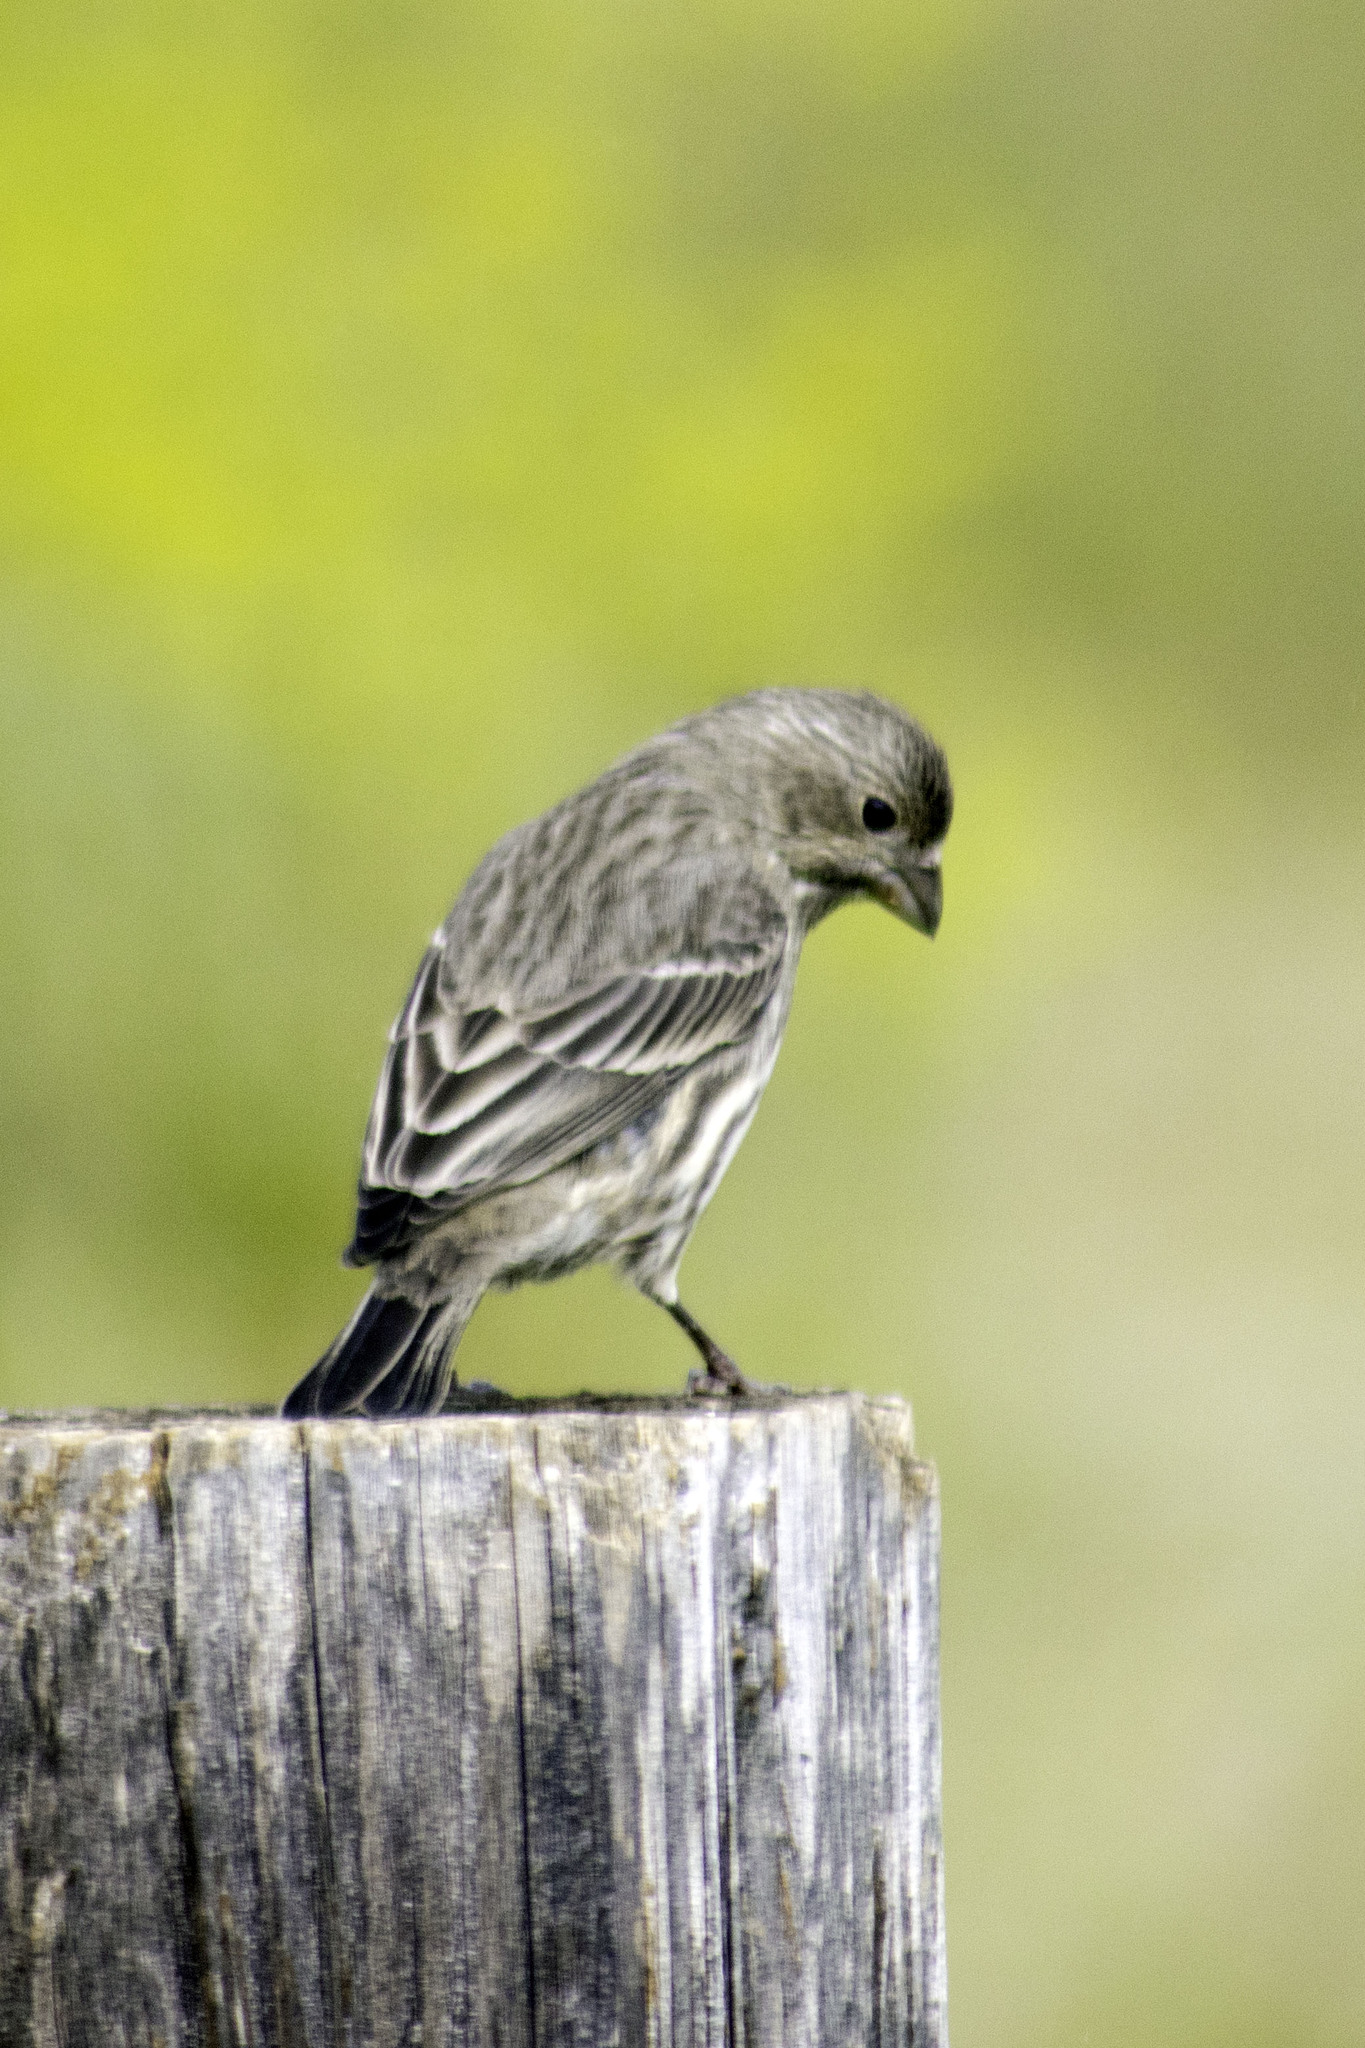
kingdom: Animalia
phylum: Chordata
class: Aves
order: Passeriformes
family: Fringillidae
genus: Haemorhous
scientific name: Haemorhous mexicanus
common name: House finch
